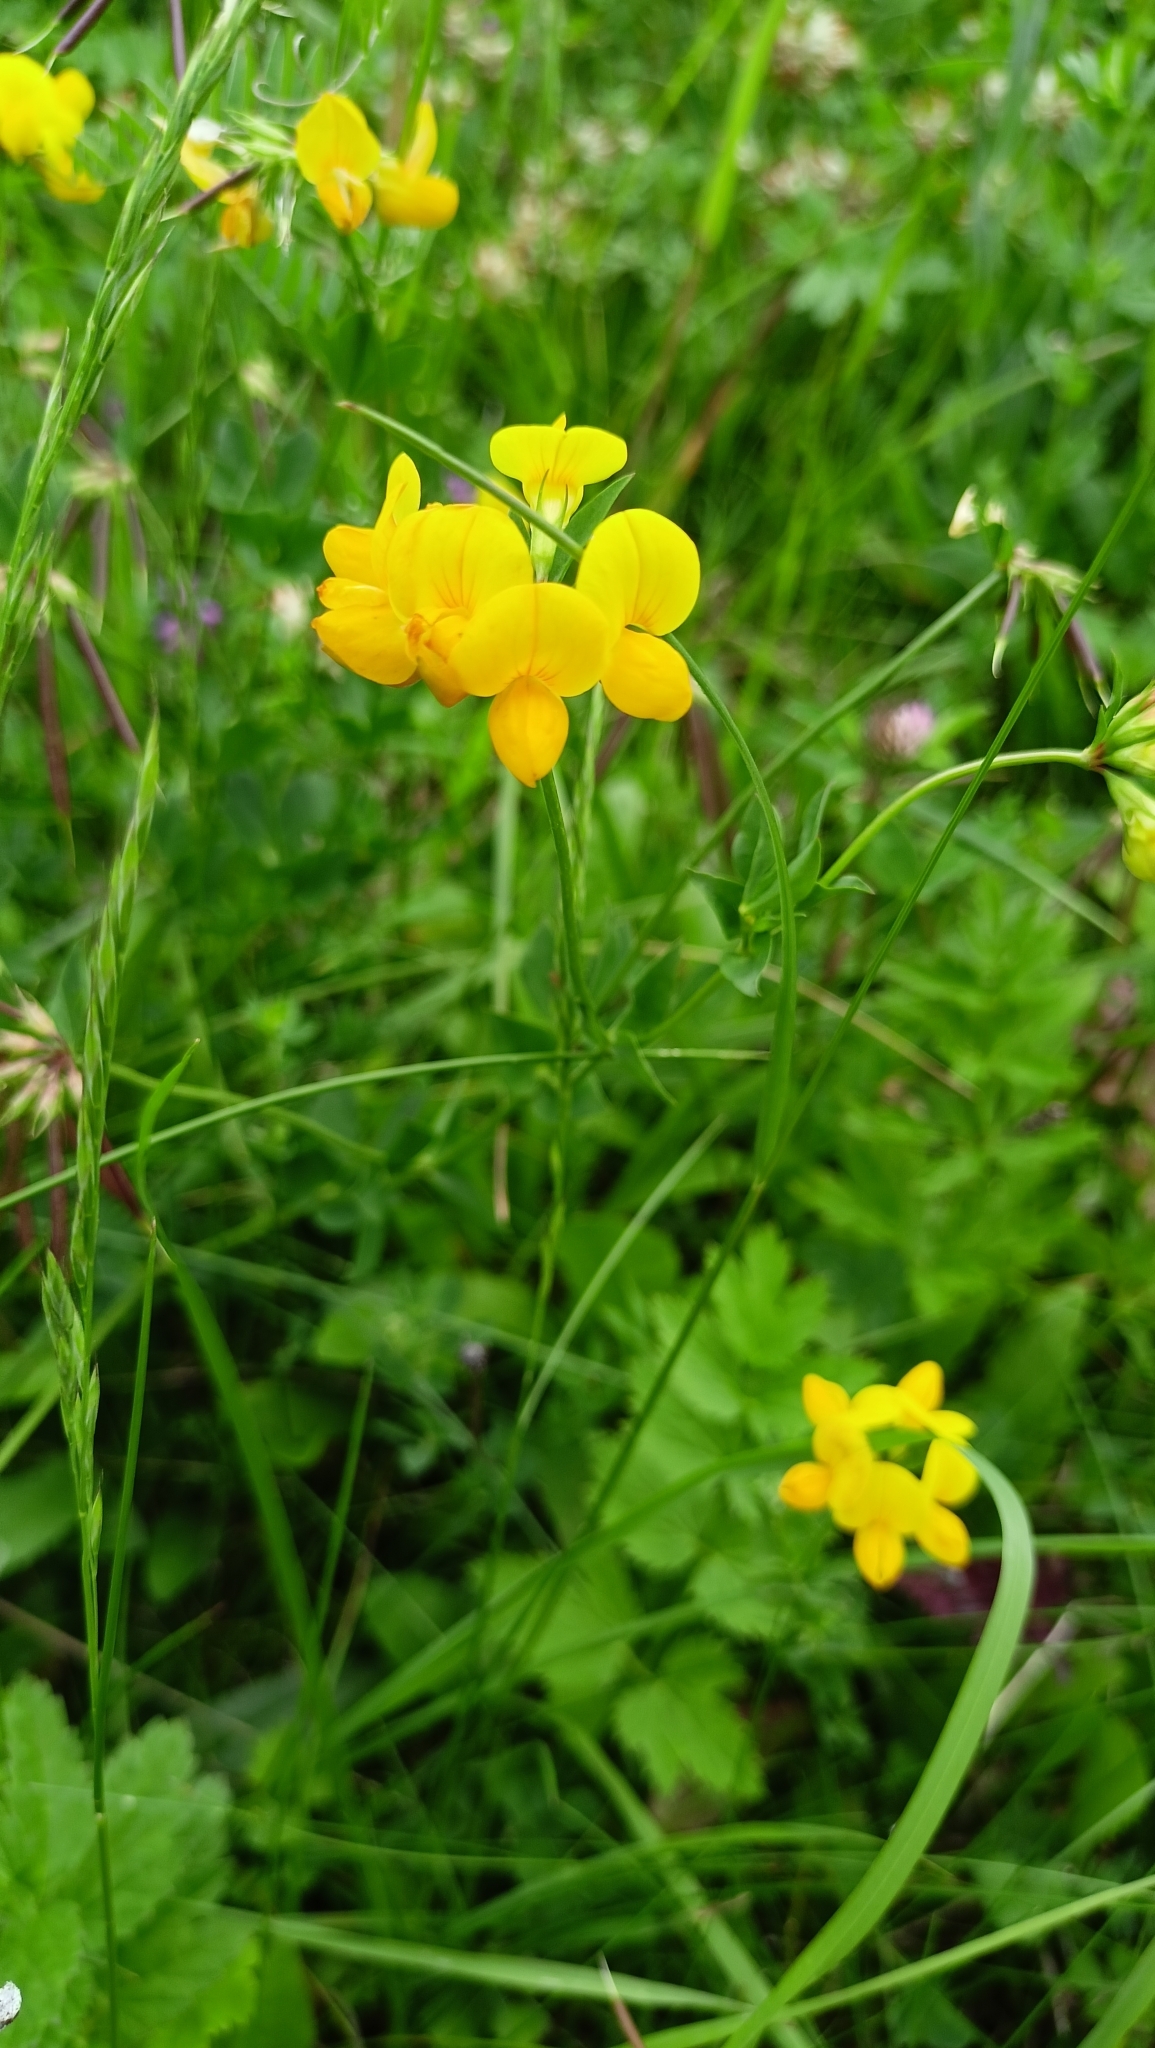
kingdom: Plantae
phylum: Tracheophyta
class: Magnoliopsida
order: Fabales
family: Fabaceae
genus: Lotus
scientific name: Lotus corniculatus
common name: Common bird's-foot-trefoil
